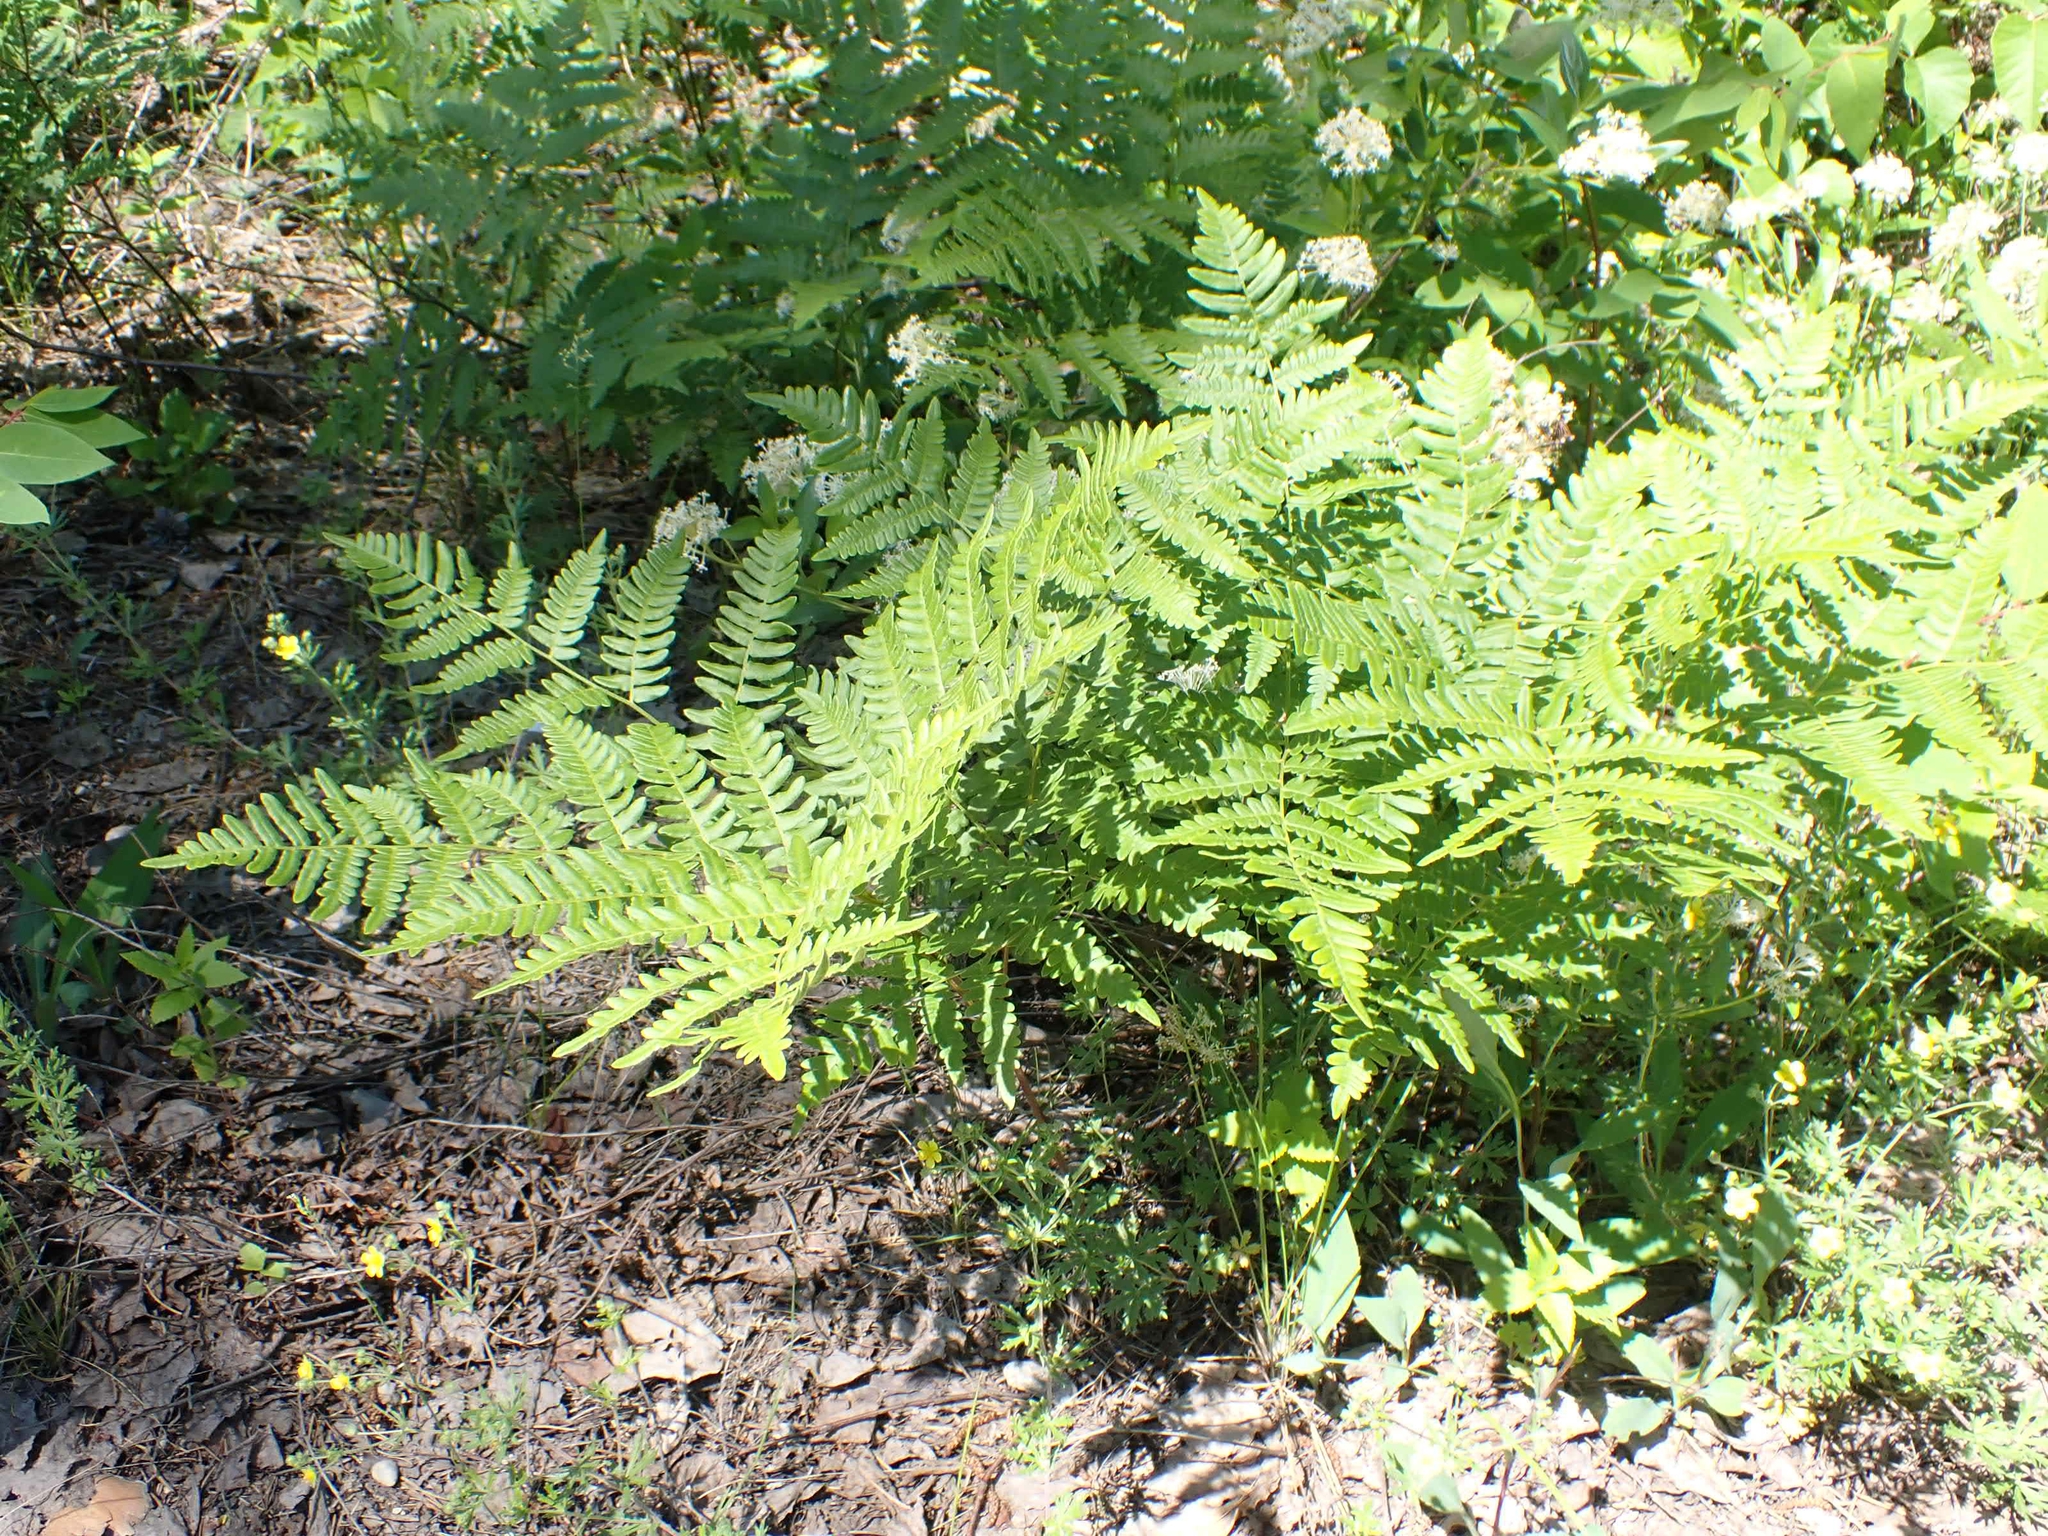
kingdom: Plantae
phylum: Tracheophyta
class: Polypodiopsida
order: Polypodiales
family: Dennstaedtiaceae
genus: Pteridium
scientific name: Pteridium aquilinum
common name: Bracken
